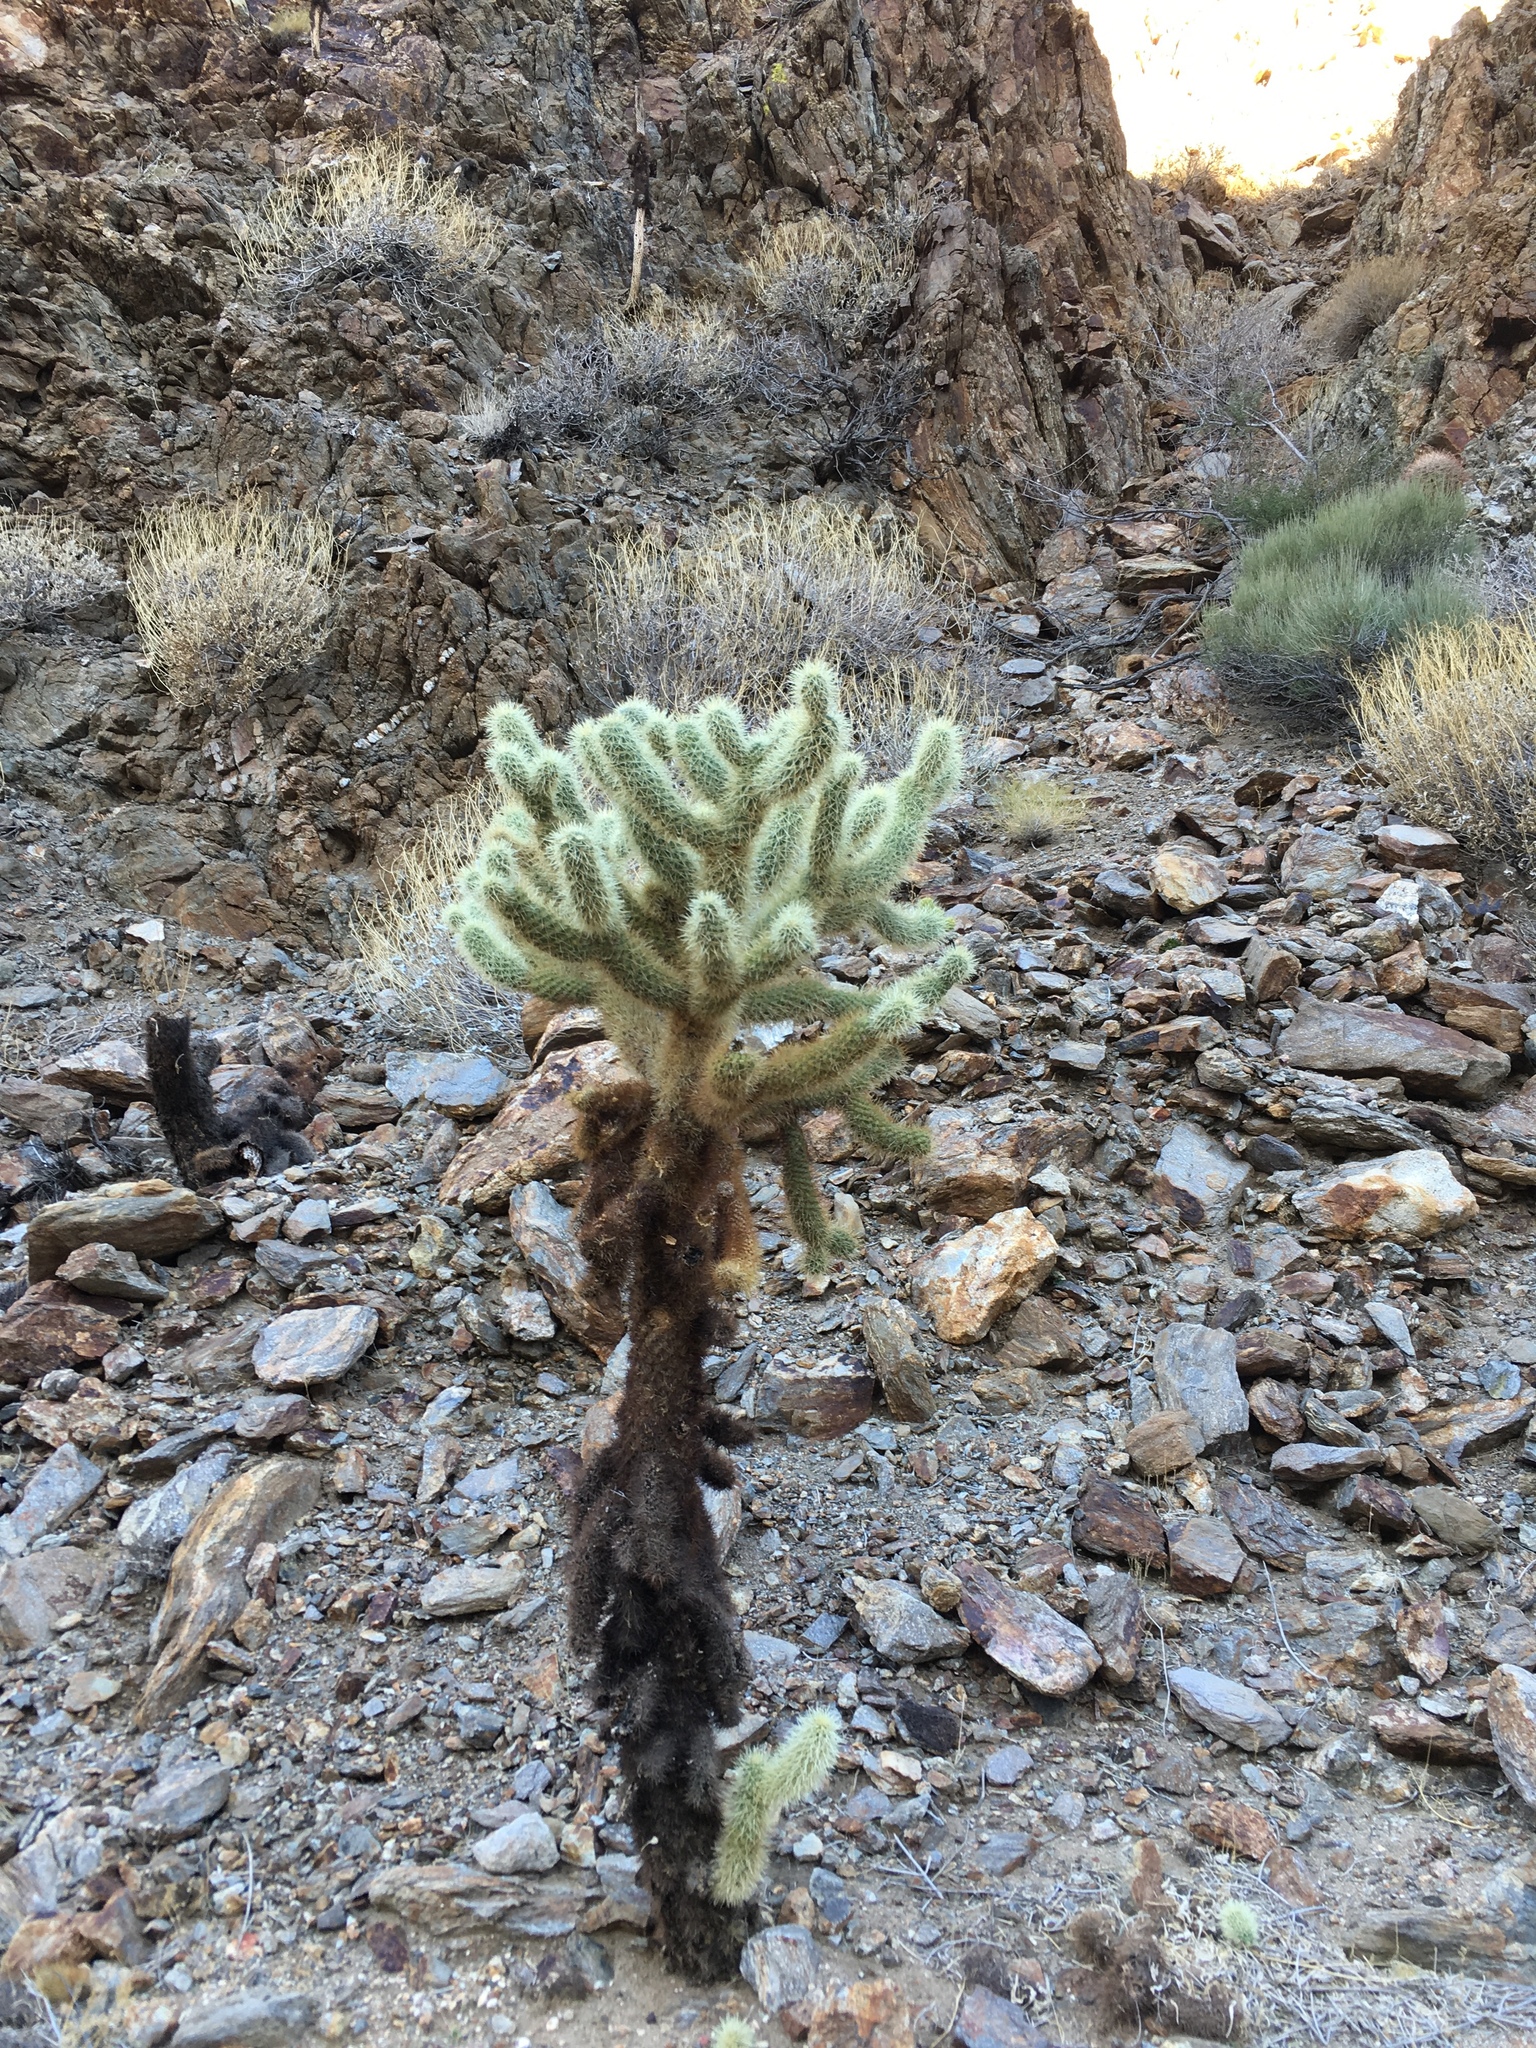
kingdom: Plantae
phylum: Tracheophyta
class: Magnoliopsida
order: Caryophyllales
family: Cactaceae
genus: Cylindropuntia
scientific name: Cylindropuntia fosbergii
